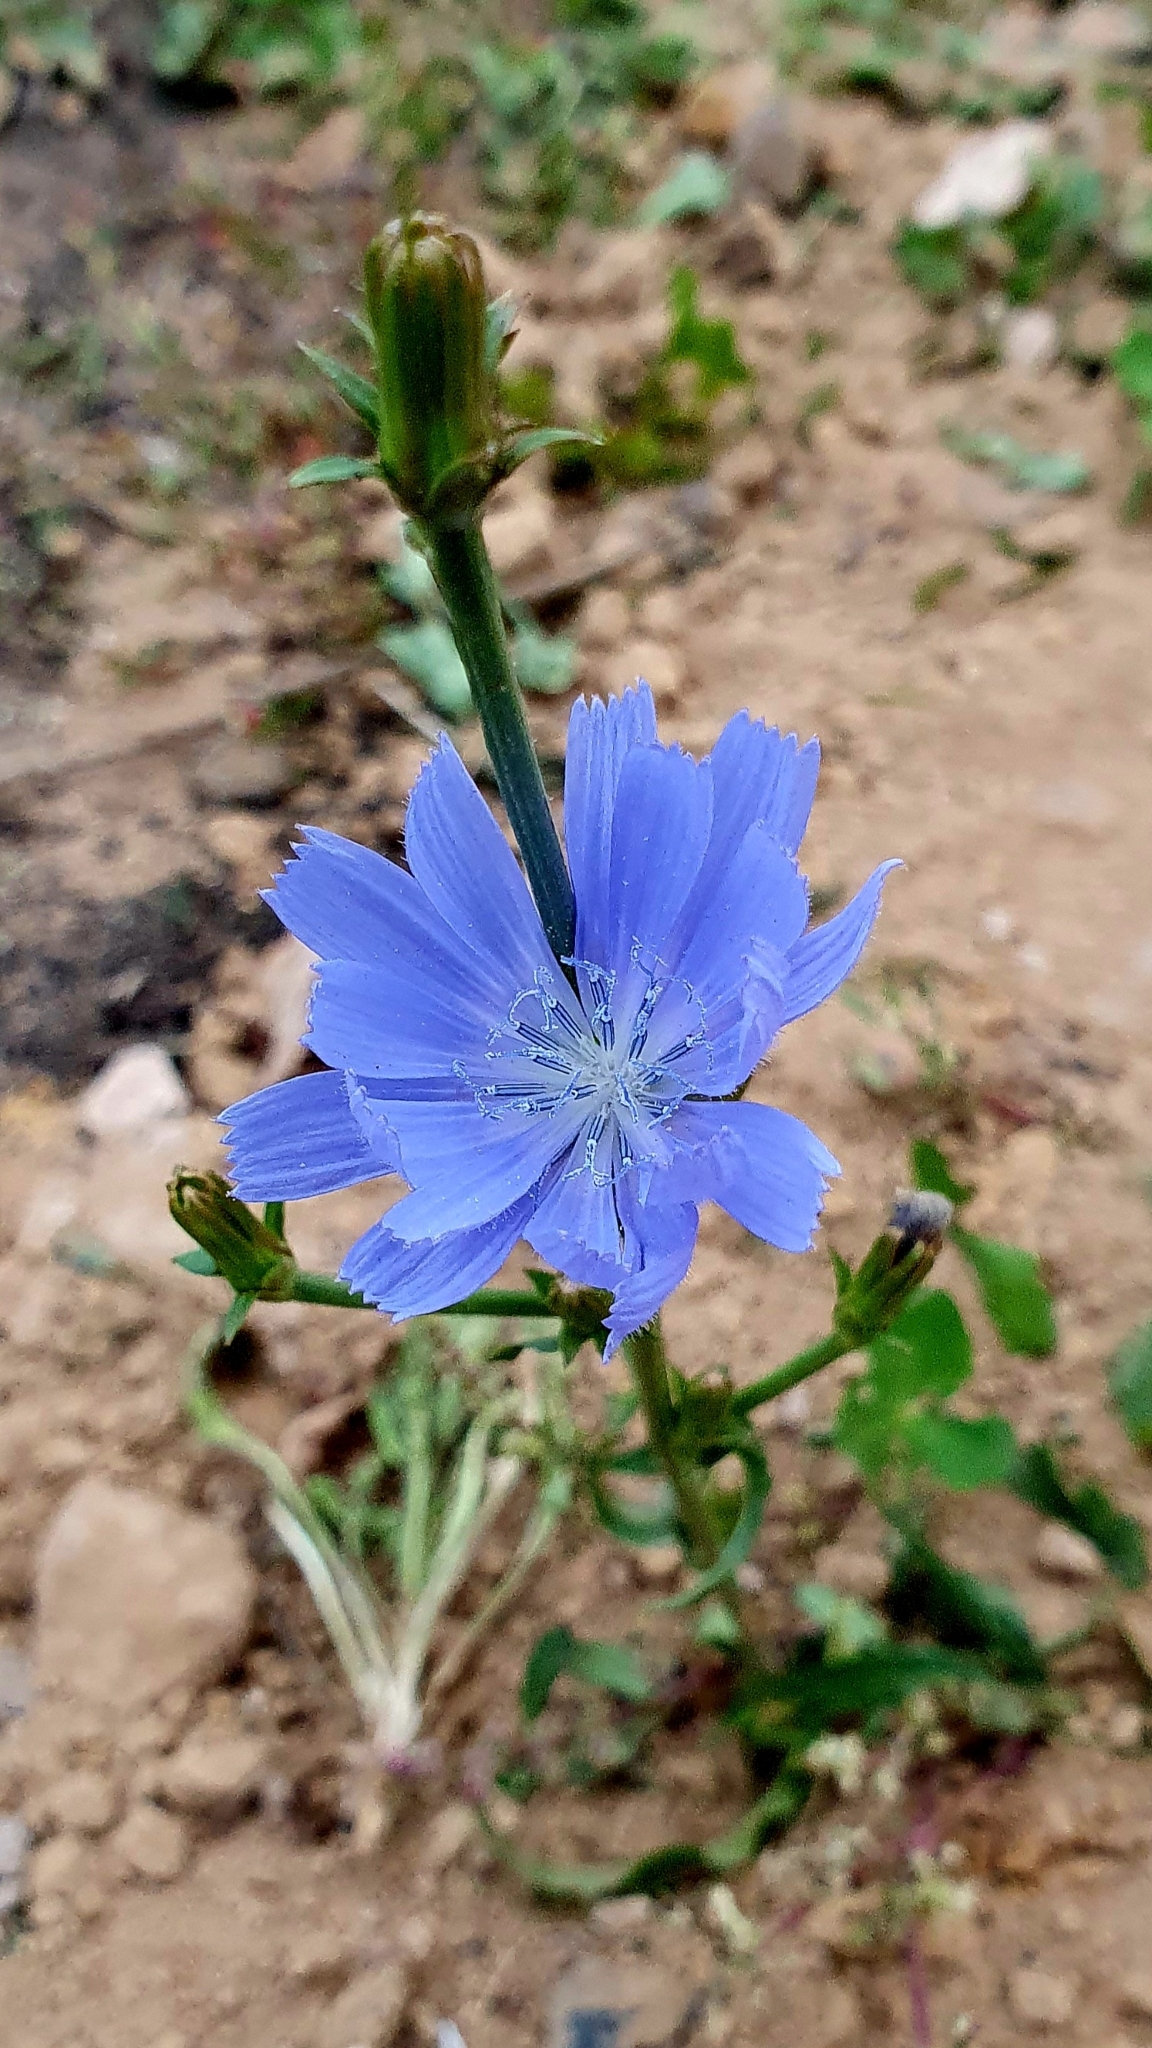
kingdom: Plantae
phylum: Tracheophyta
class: Magnoliopsida
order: Asterales
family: Asteraceae
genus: Cichorium
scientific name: Cichorium intybus
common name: Chicory
